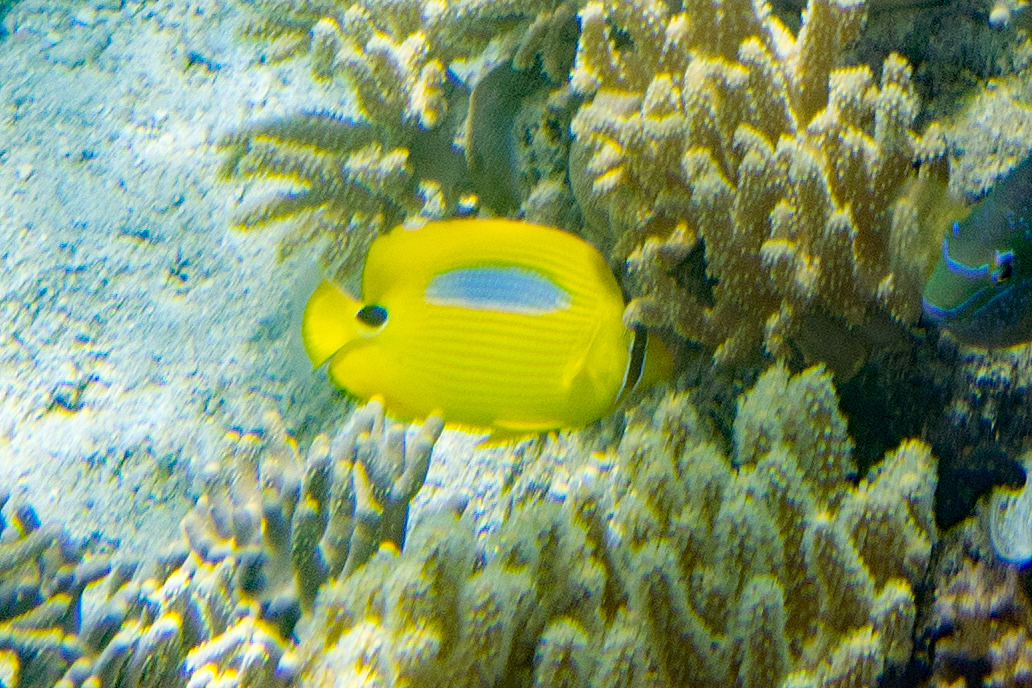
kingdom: Animalia
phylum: Chordata
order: Perciformes
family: Chaetodontidae
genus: Chaetodon
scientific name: Chaetodon plebeius
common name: Bluespot butterflyfish
